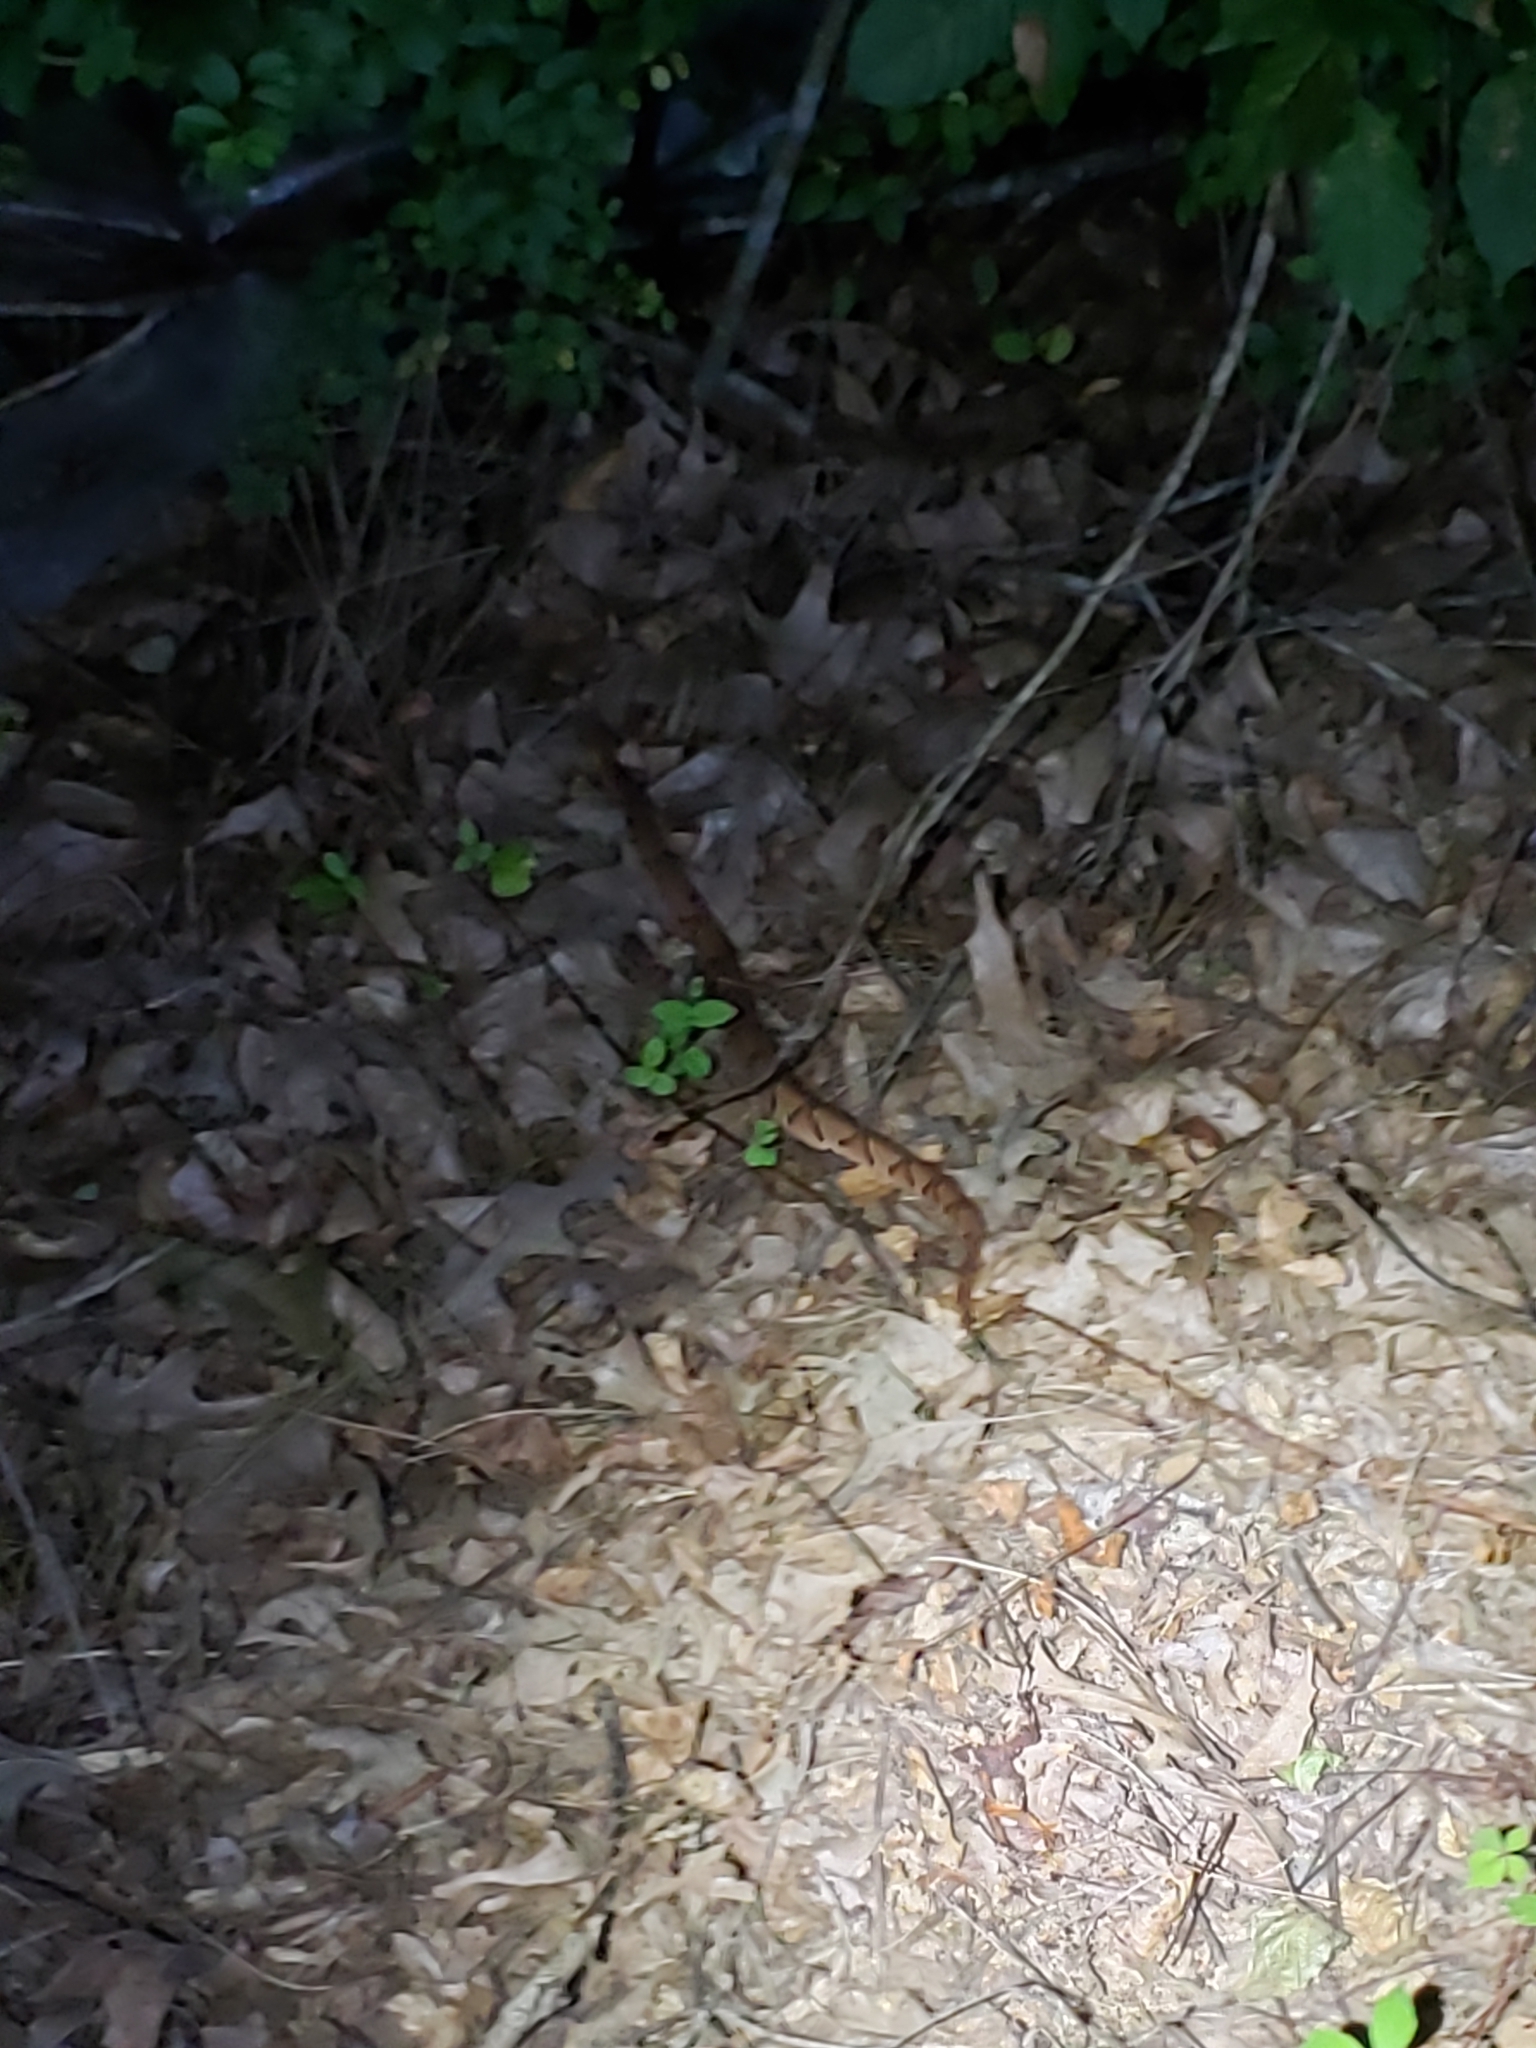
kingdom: Animalia
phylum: Chordata
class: Squamata
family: Viperidae
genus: Agkistrodon
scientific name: Agkistrodon contortrix
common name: Northern copperhead
